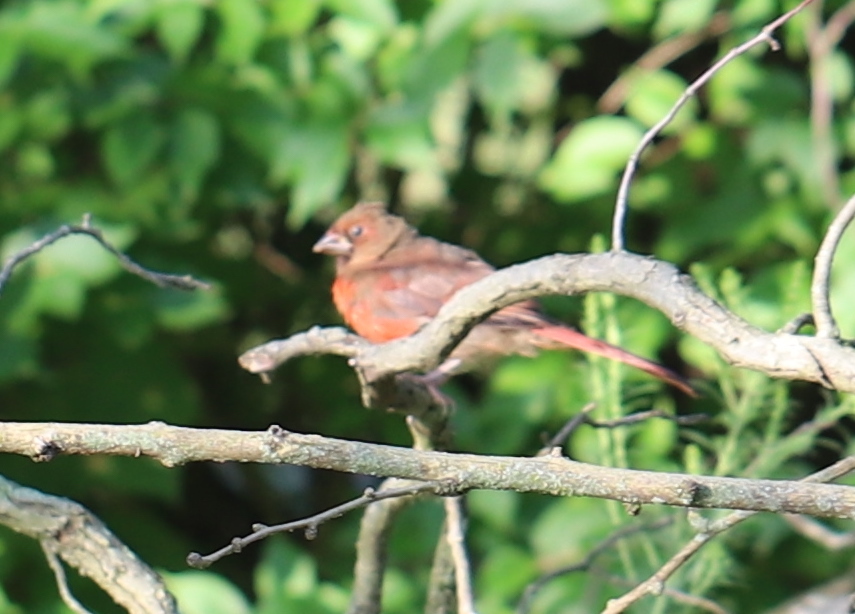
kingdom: Animalia
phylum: Chordata
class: Aves
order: Passeriformes
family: Cardinalidae
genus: Cardinalis
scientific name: Cardinalis cardinalis
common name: Northern cardinal
